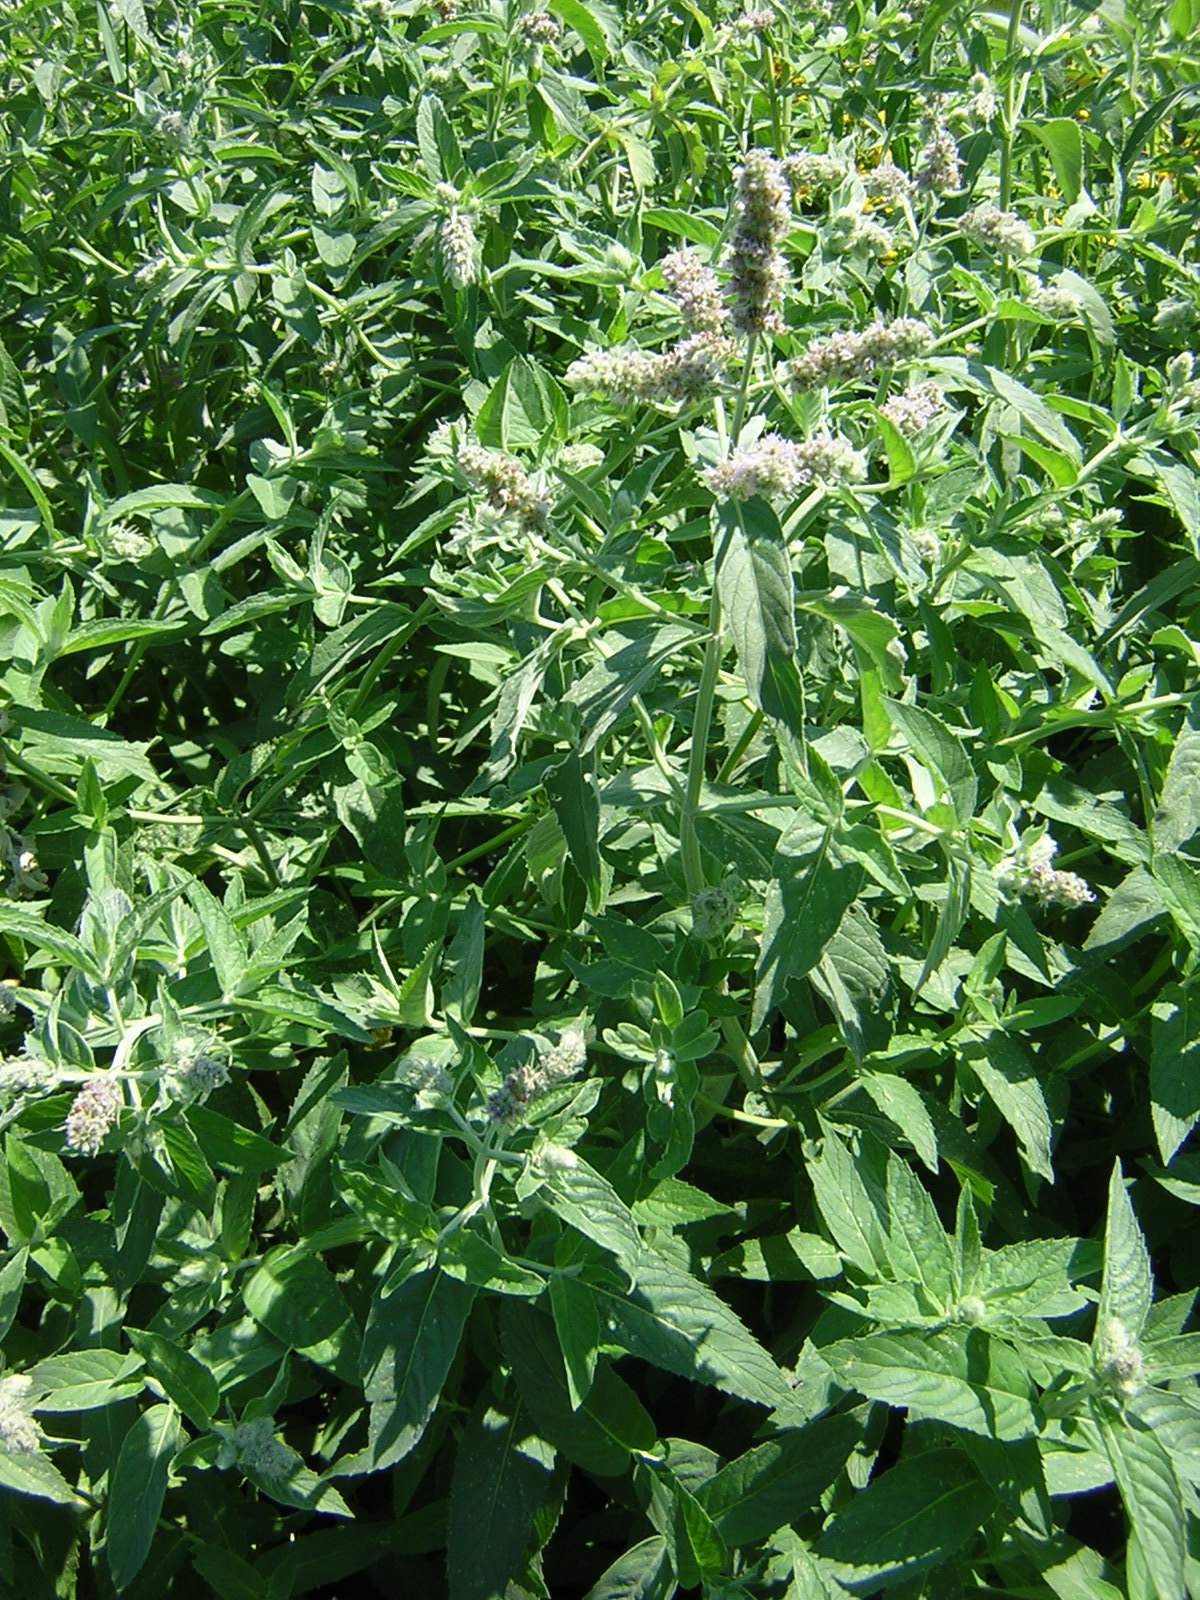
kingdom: Plantae
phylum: Tracheophyta
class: Magnoliopsida
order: Lamiales
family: Lamiaceae
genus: Mentha
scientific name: Mentha longifolia
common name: Horse mint
